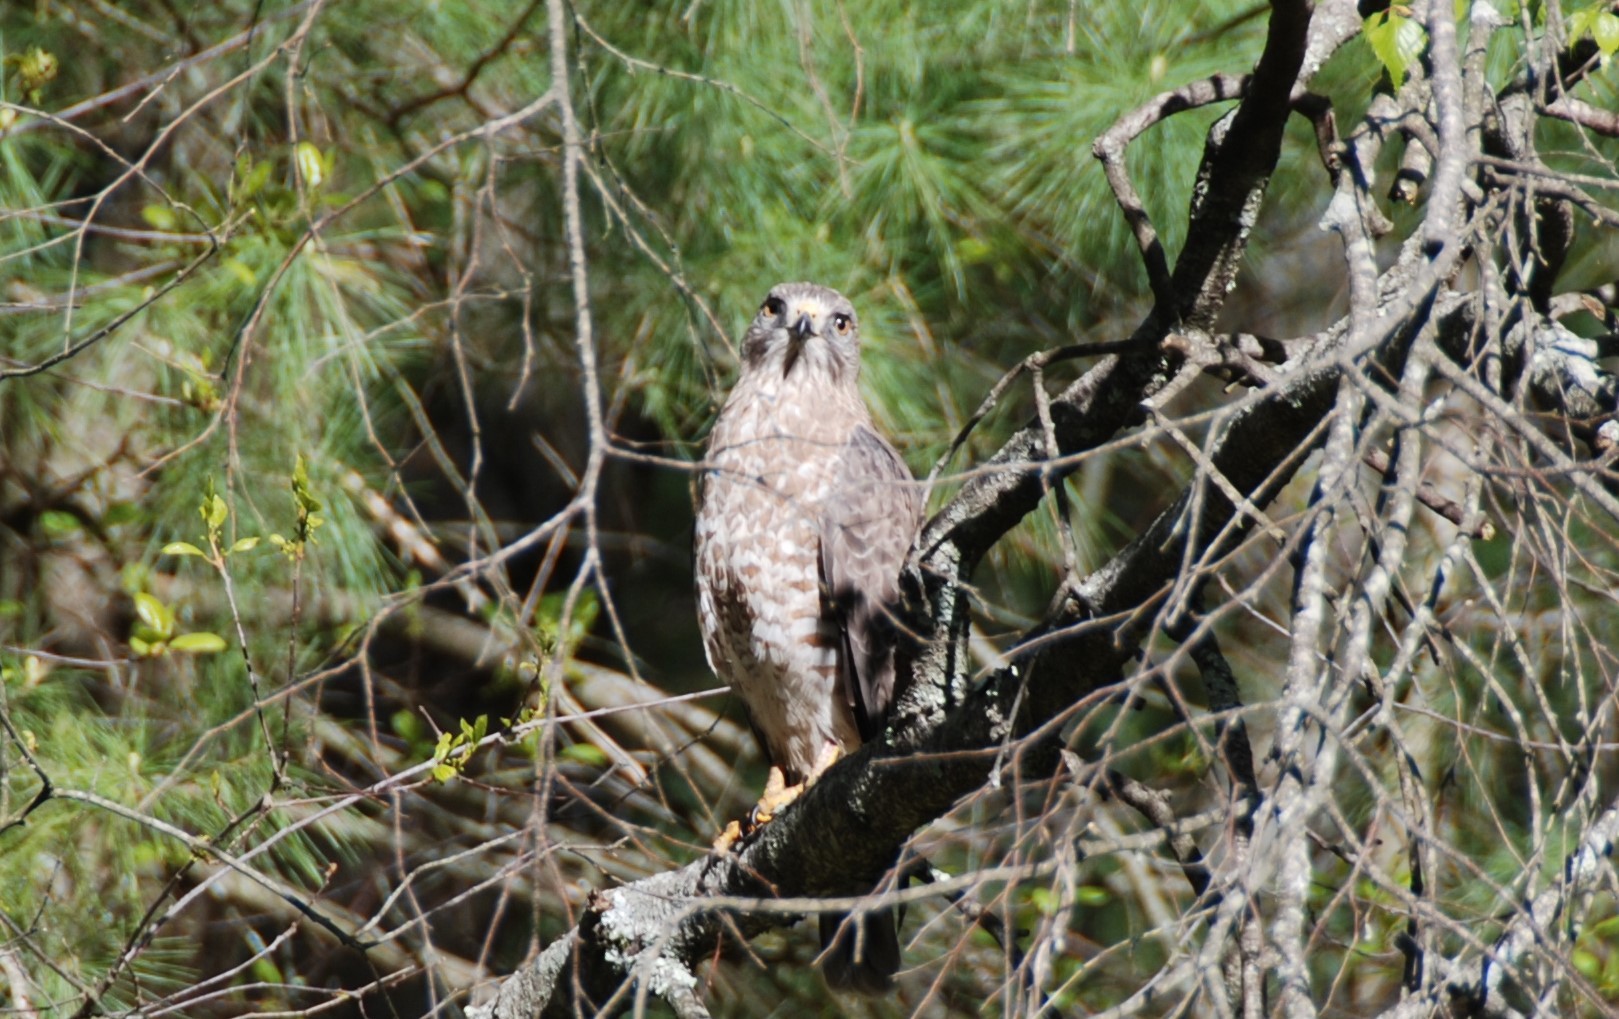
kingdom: Animalia
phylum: Chordata
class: Aves
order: Accipitriformes
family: Accipitridae
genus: Buteo
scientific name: Buteo platypterus
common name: Broad-winged hawk
